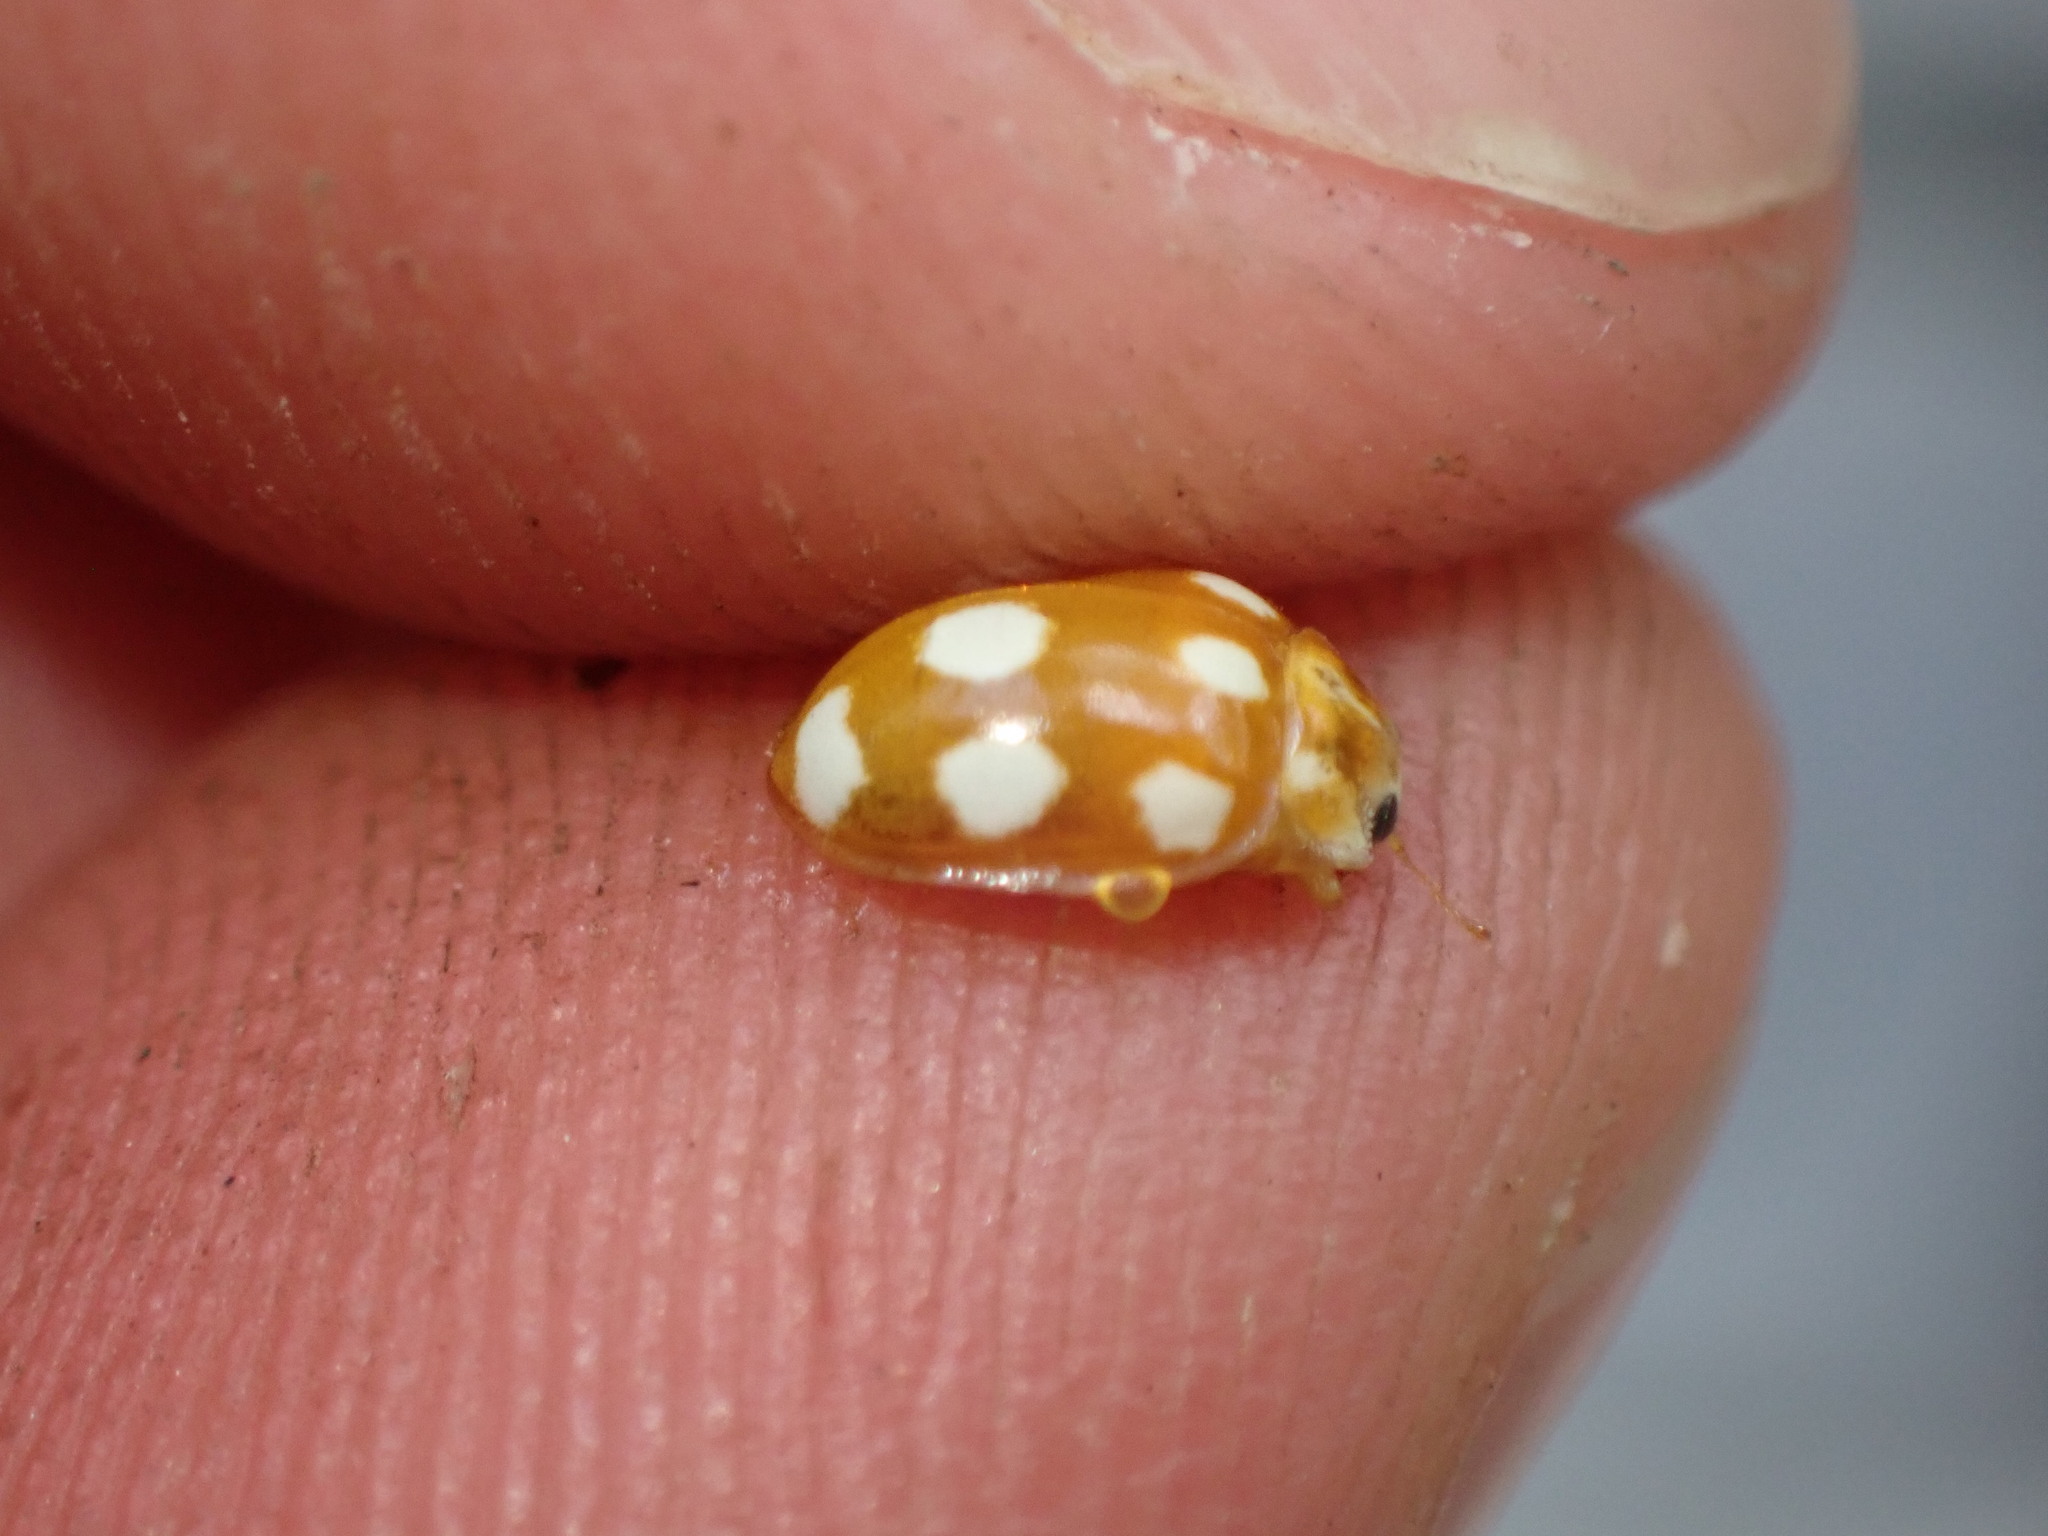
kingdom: Animalia
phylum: Arthropoda
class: Insecta
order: Coleoptera
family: Coccinellidae
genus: Calvia
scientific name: Calvia decemguttata
